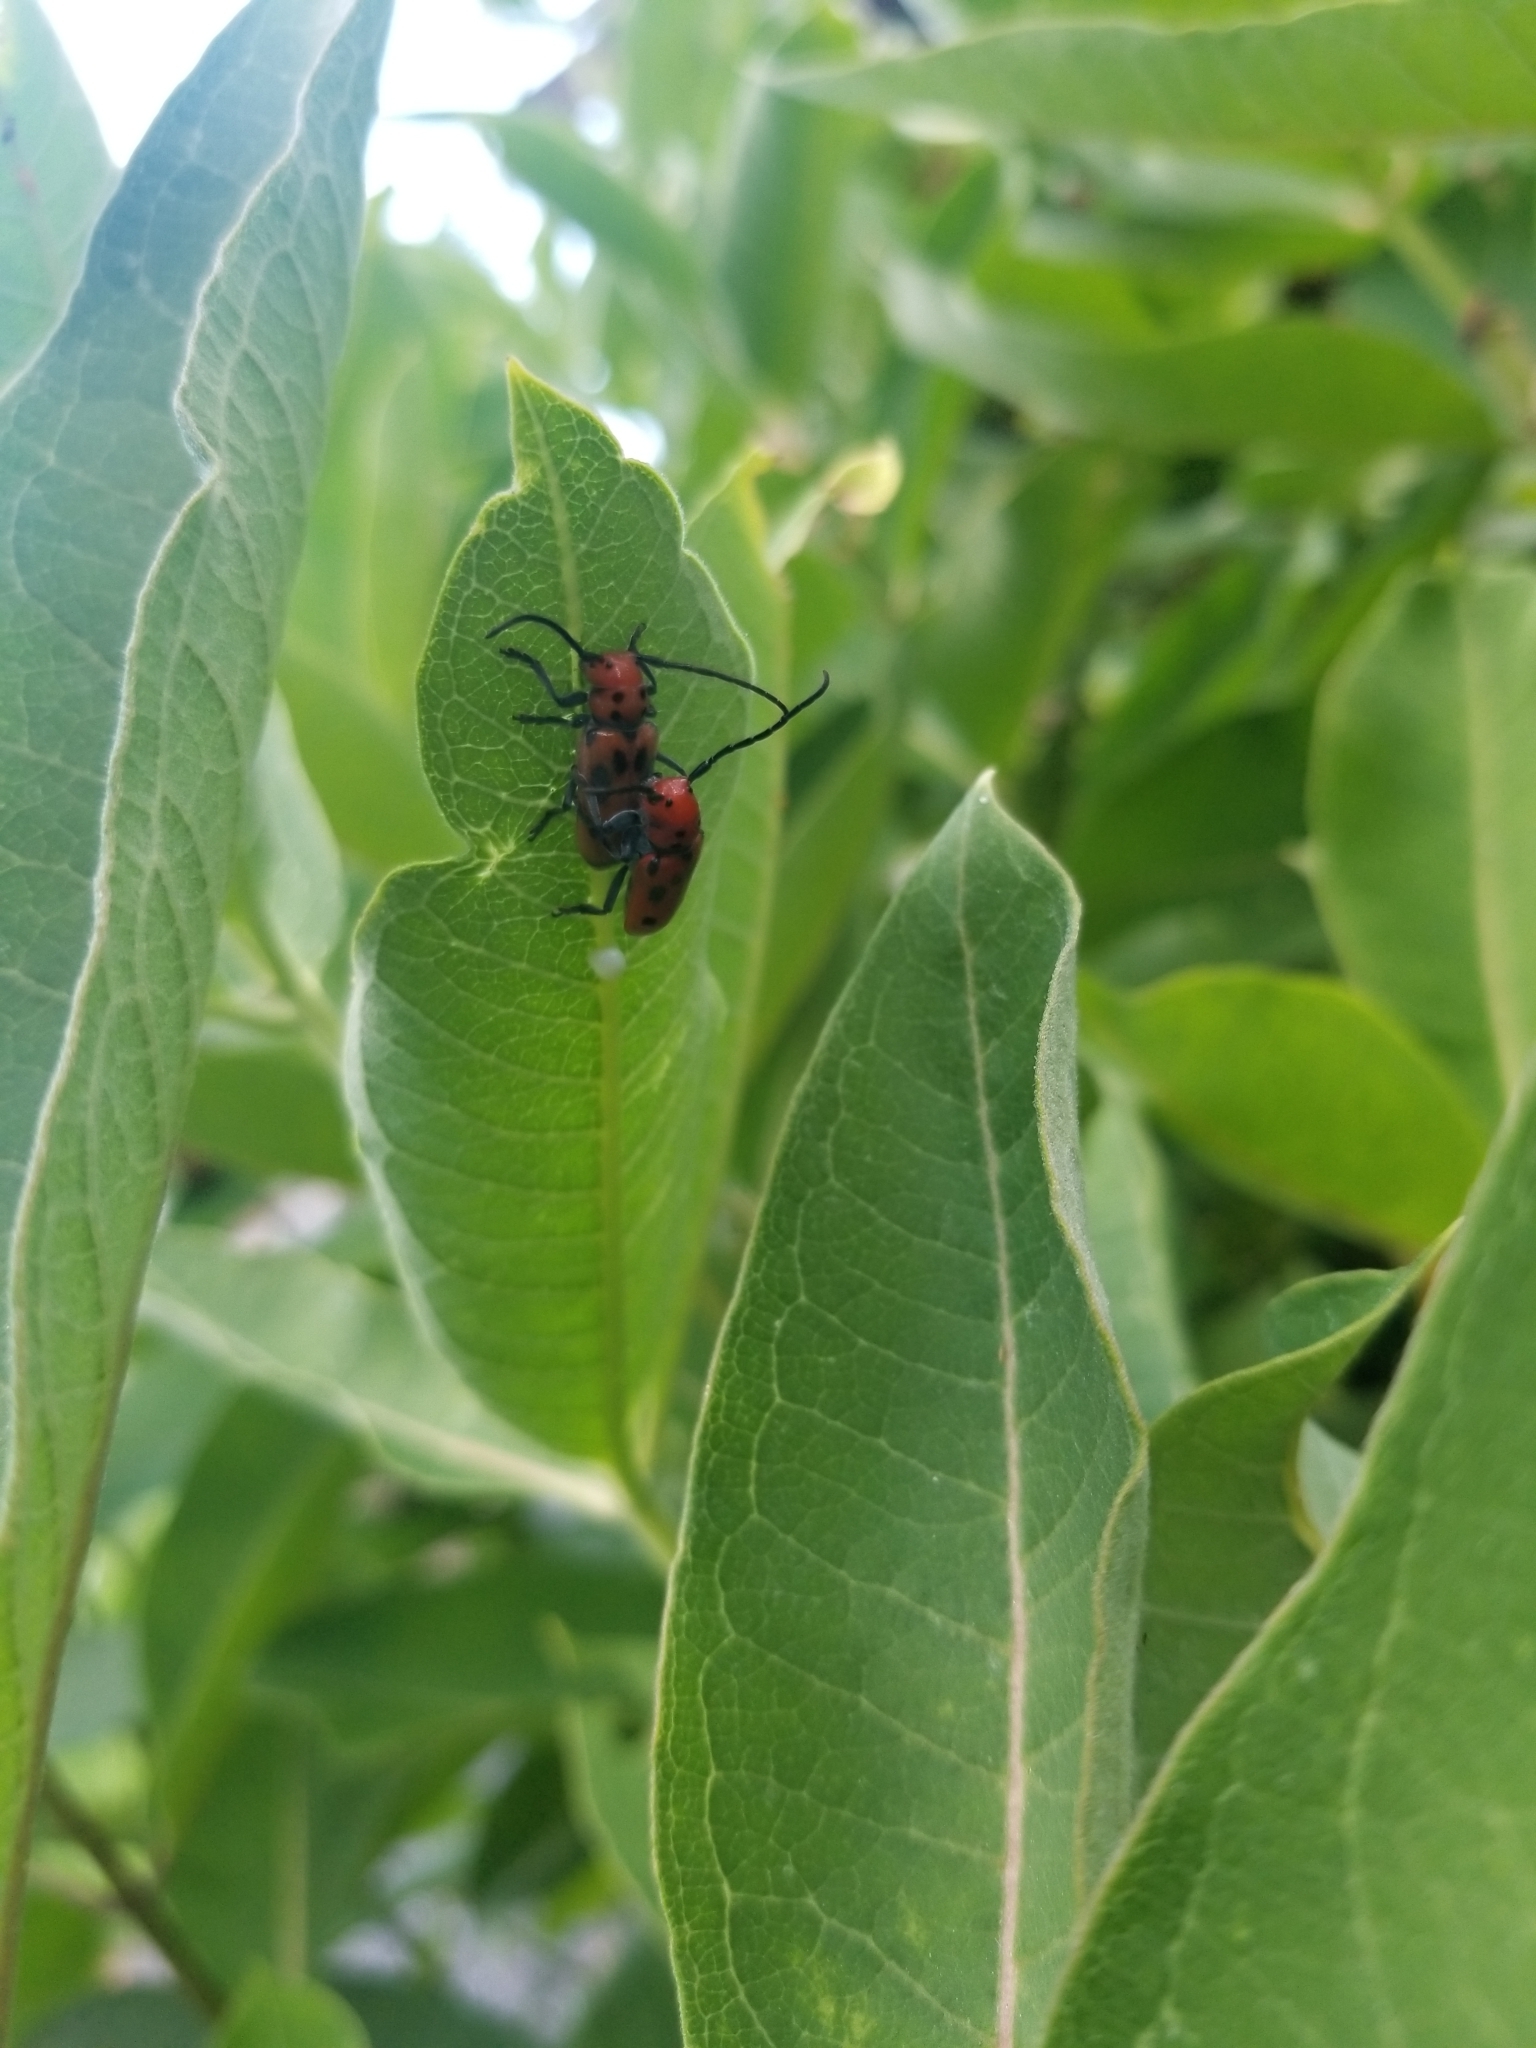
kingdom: Animalia
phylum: Arthropoda
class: Insecta
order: Coleoptera
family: Cerambycidae
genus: Tetraopes
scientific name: Tetraopes tetrophthalmus
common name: Red milkweed beetle
